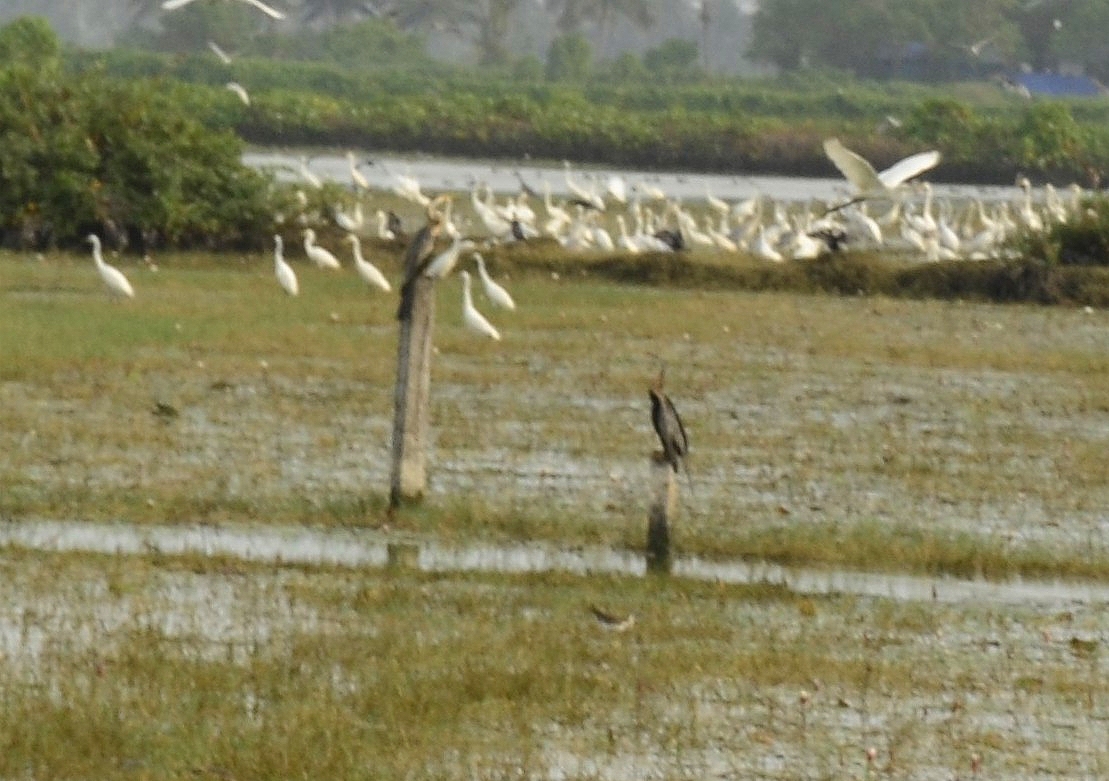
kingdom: Animalia
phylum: Chordata
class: Aves
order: Suliformes
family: Anhingidae
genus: Anhinga
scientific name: Anhinga melanogaster
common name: Oriental darter
